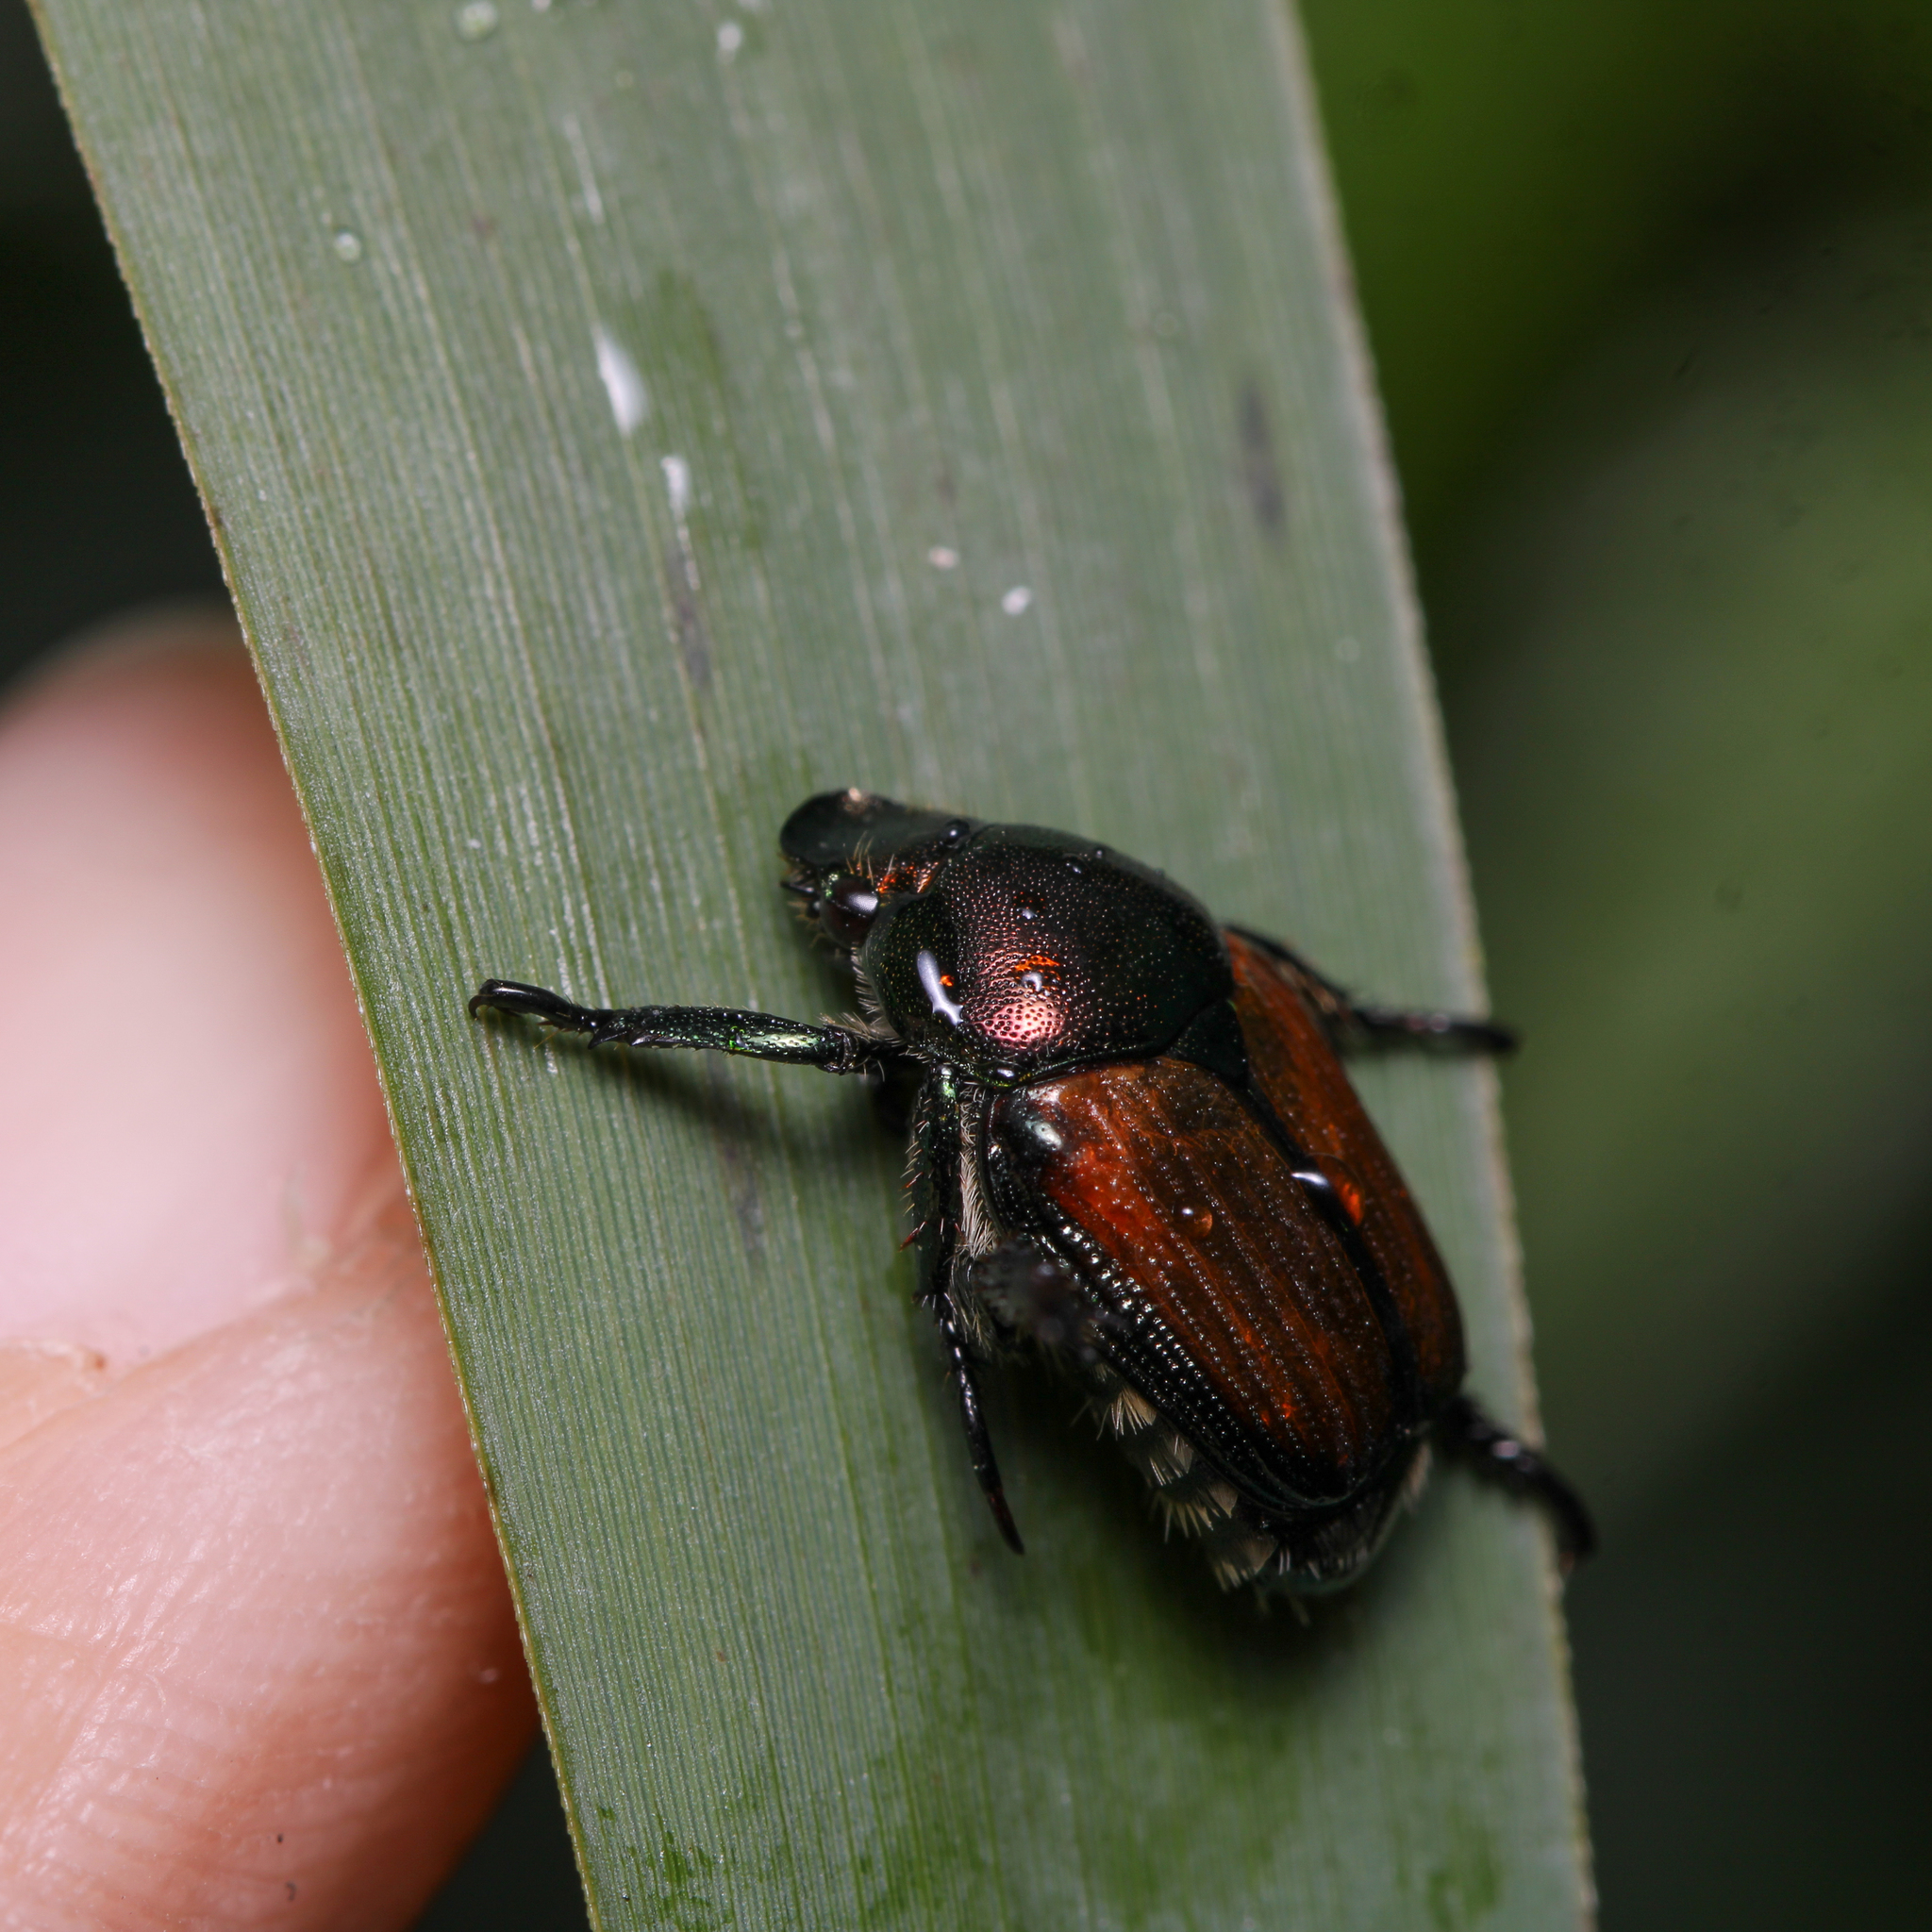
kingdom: Animalia
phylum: Arthropoda
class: Insecta
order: Coleoptera
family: Scarabaeidae
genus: Popillia
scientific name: Popillia japonica
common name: Japanese beetle
